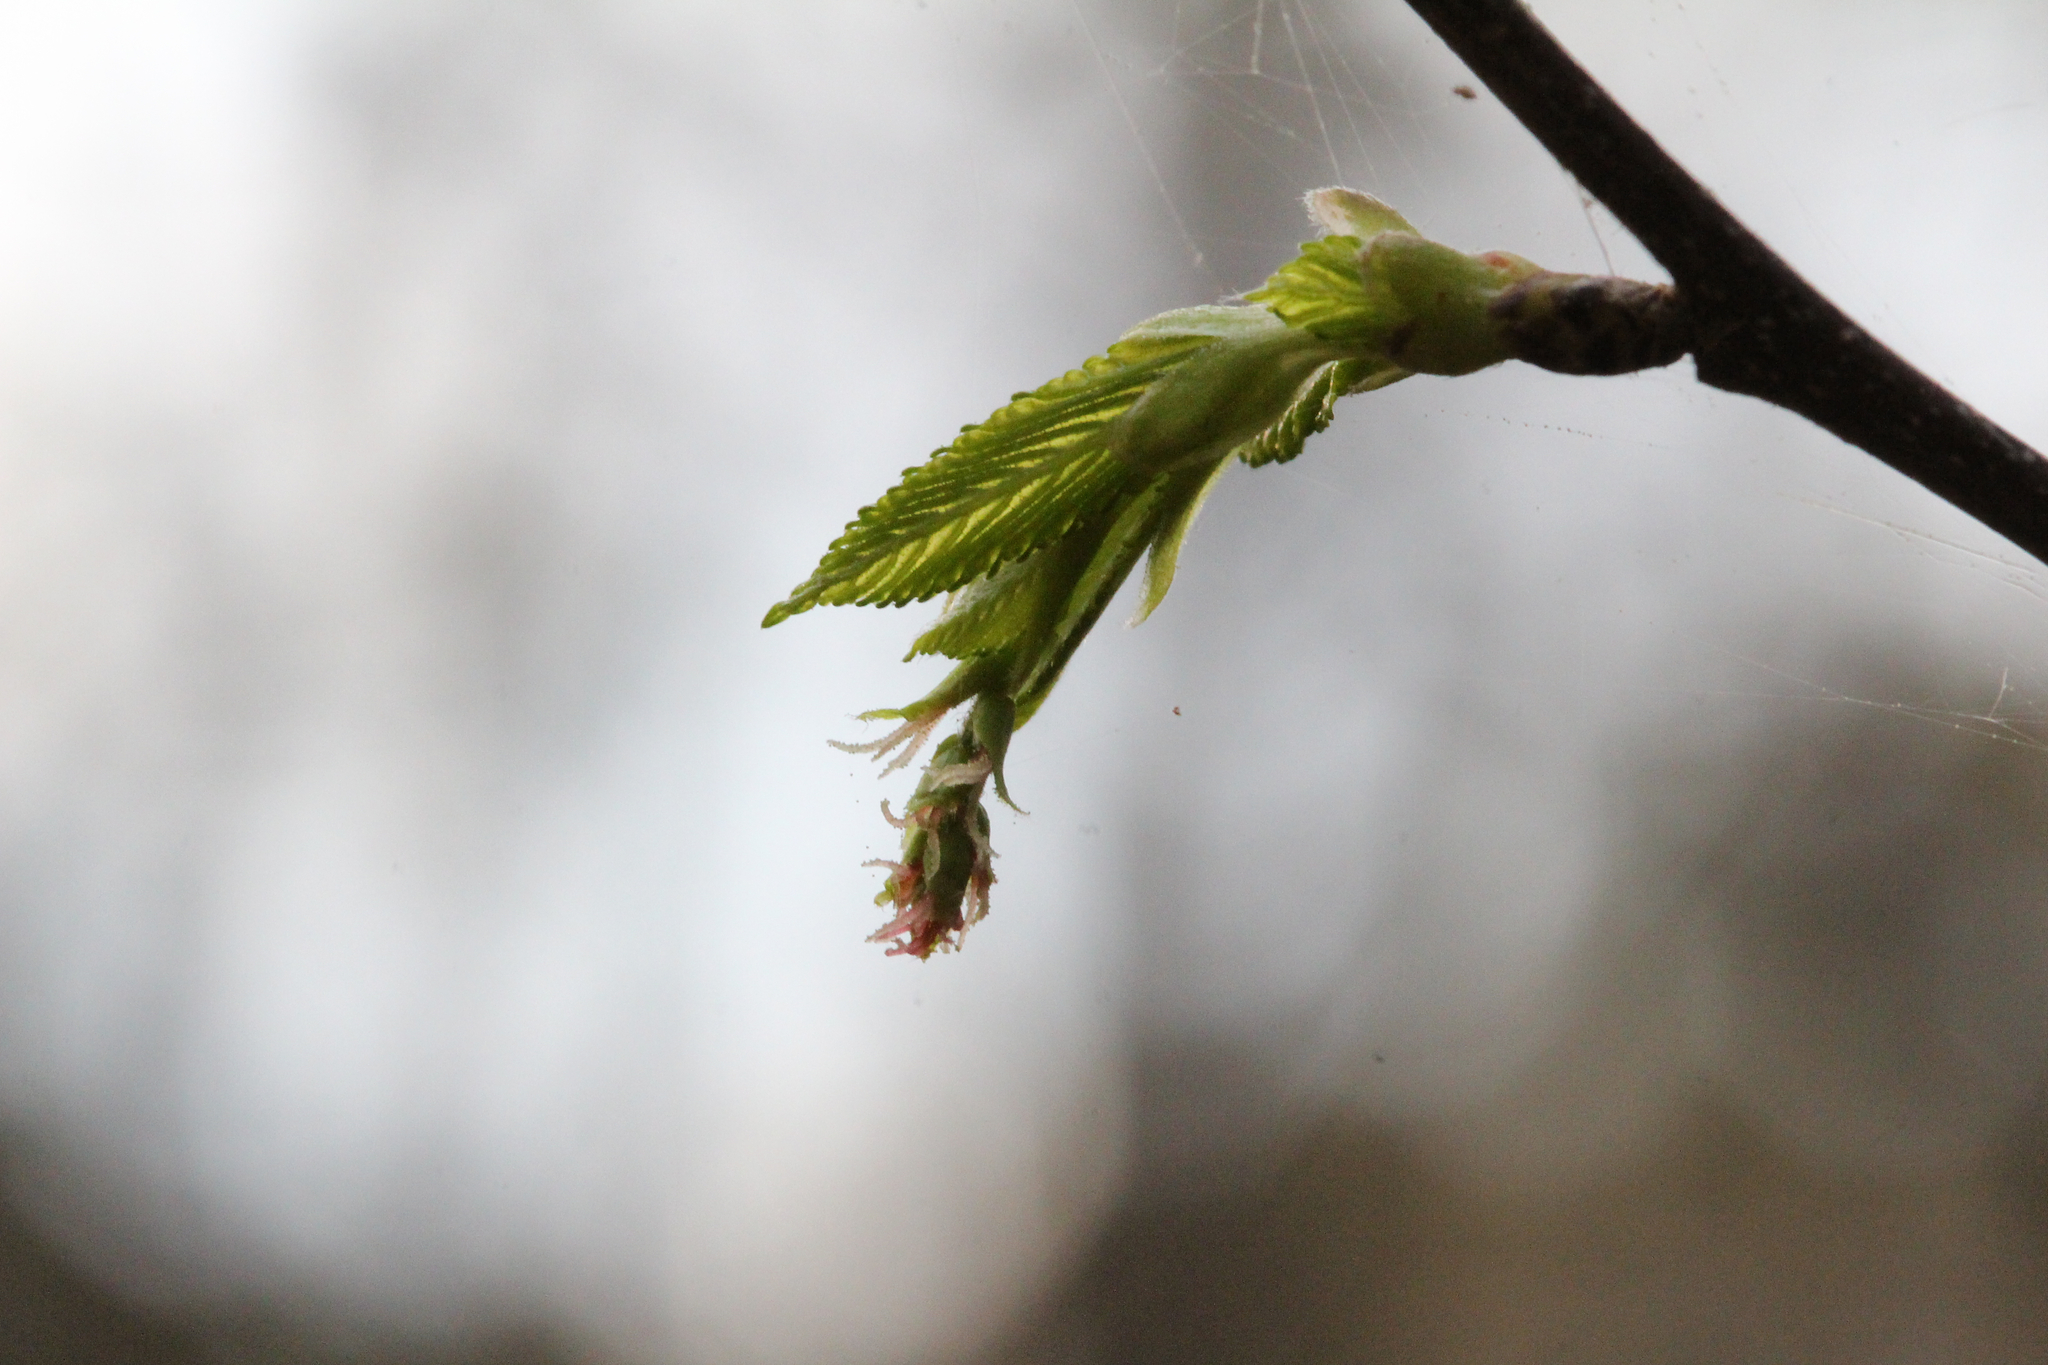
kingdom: Plantae
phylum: Tracheophyta
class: Magnoliopsida
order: Fagales
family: Betulaceae
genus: Carpinus
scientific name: Carpinus caroliniana
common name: American hornbeam
